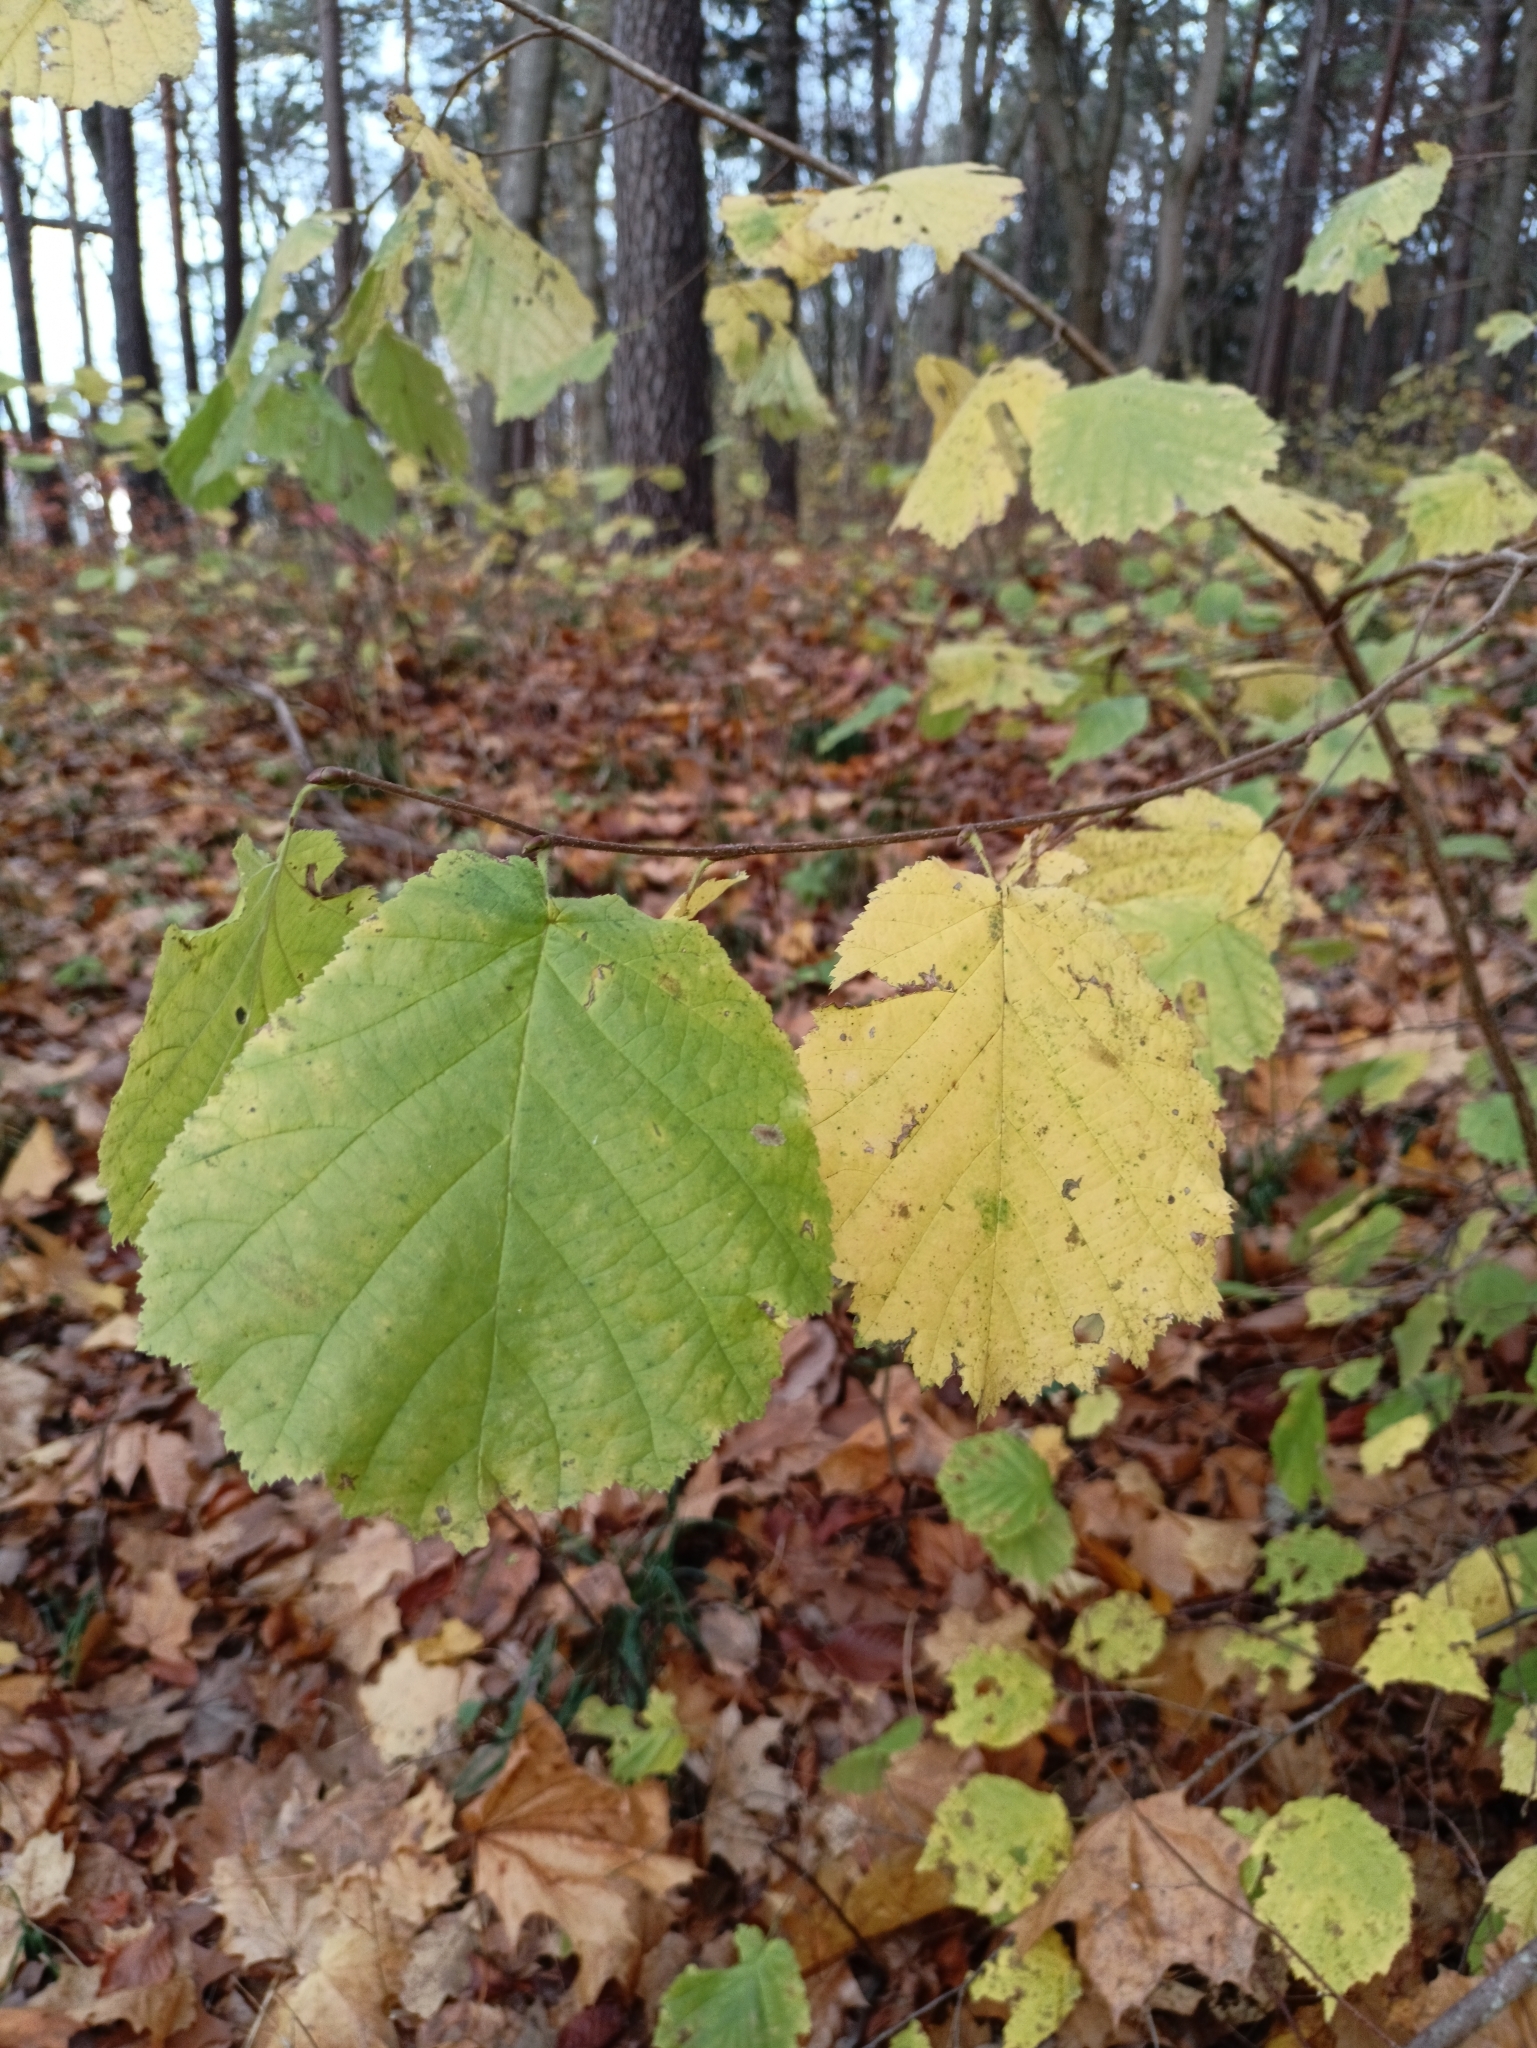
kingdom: Plantae
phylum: Tracheophyta
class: Magnoliopsida
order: Fagales
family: Betulaceae
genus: Corylus
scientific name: Corylus avellana
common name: European hazel
